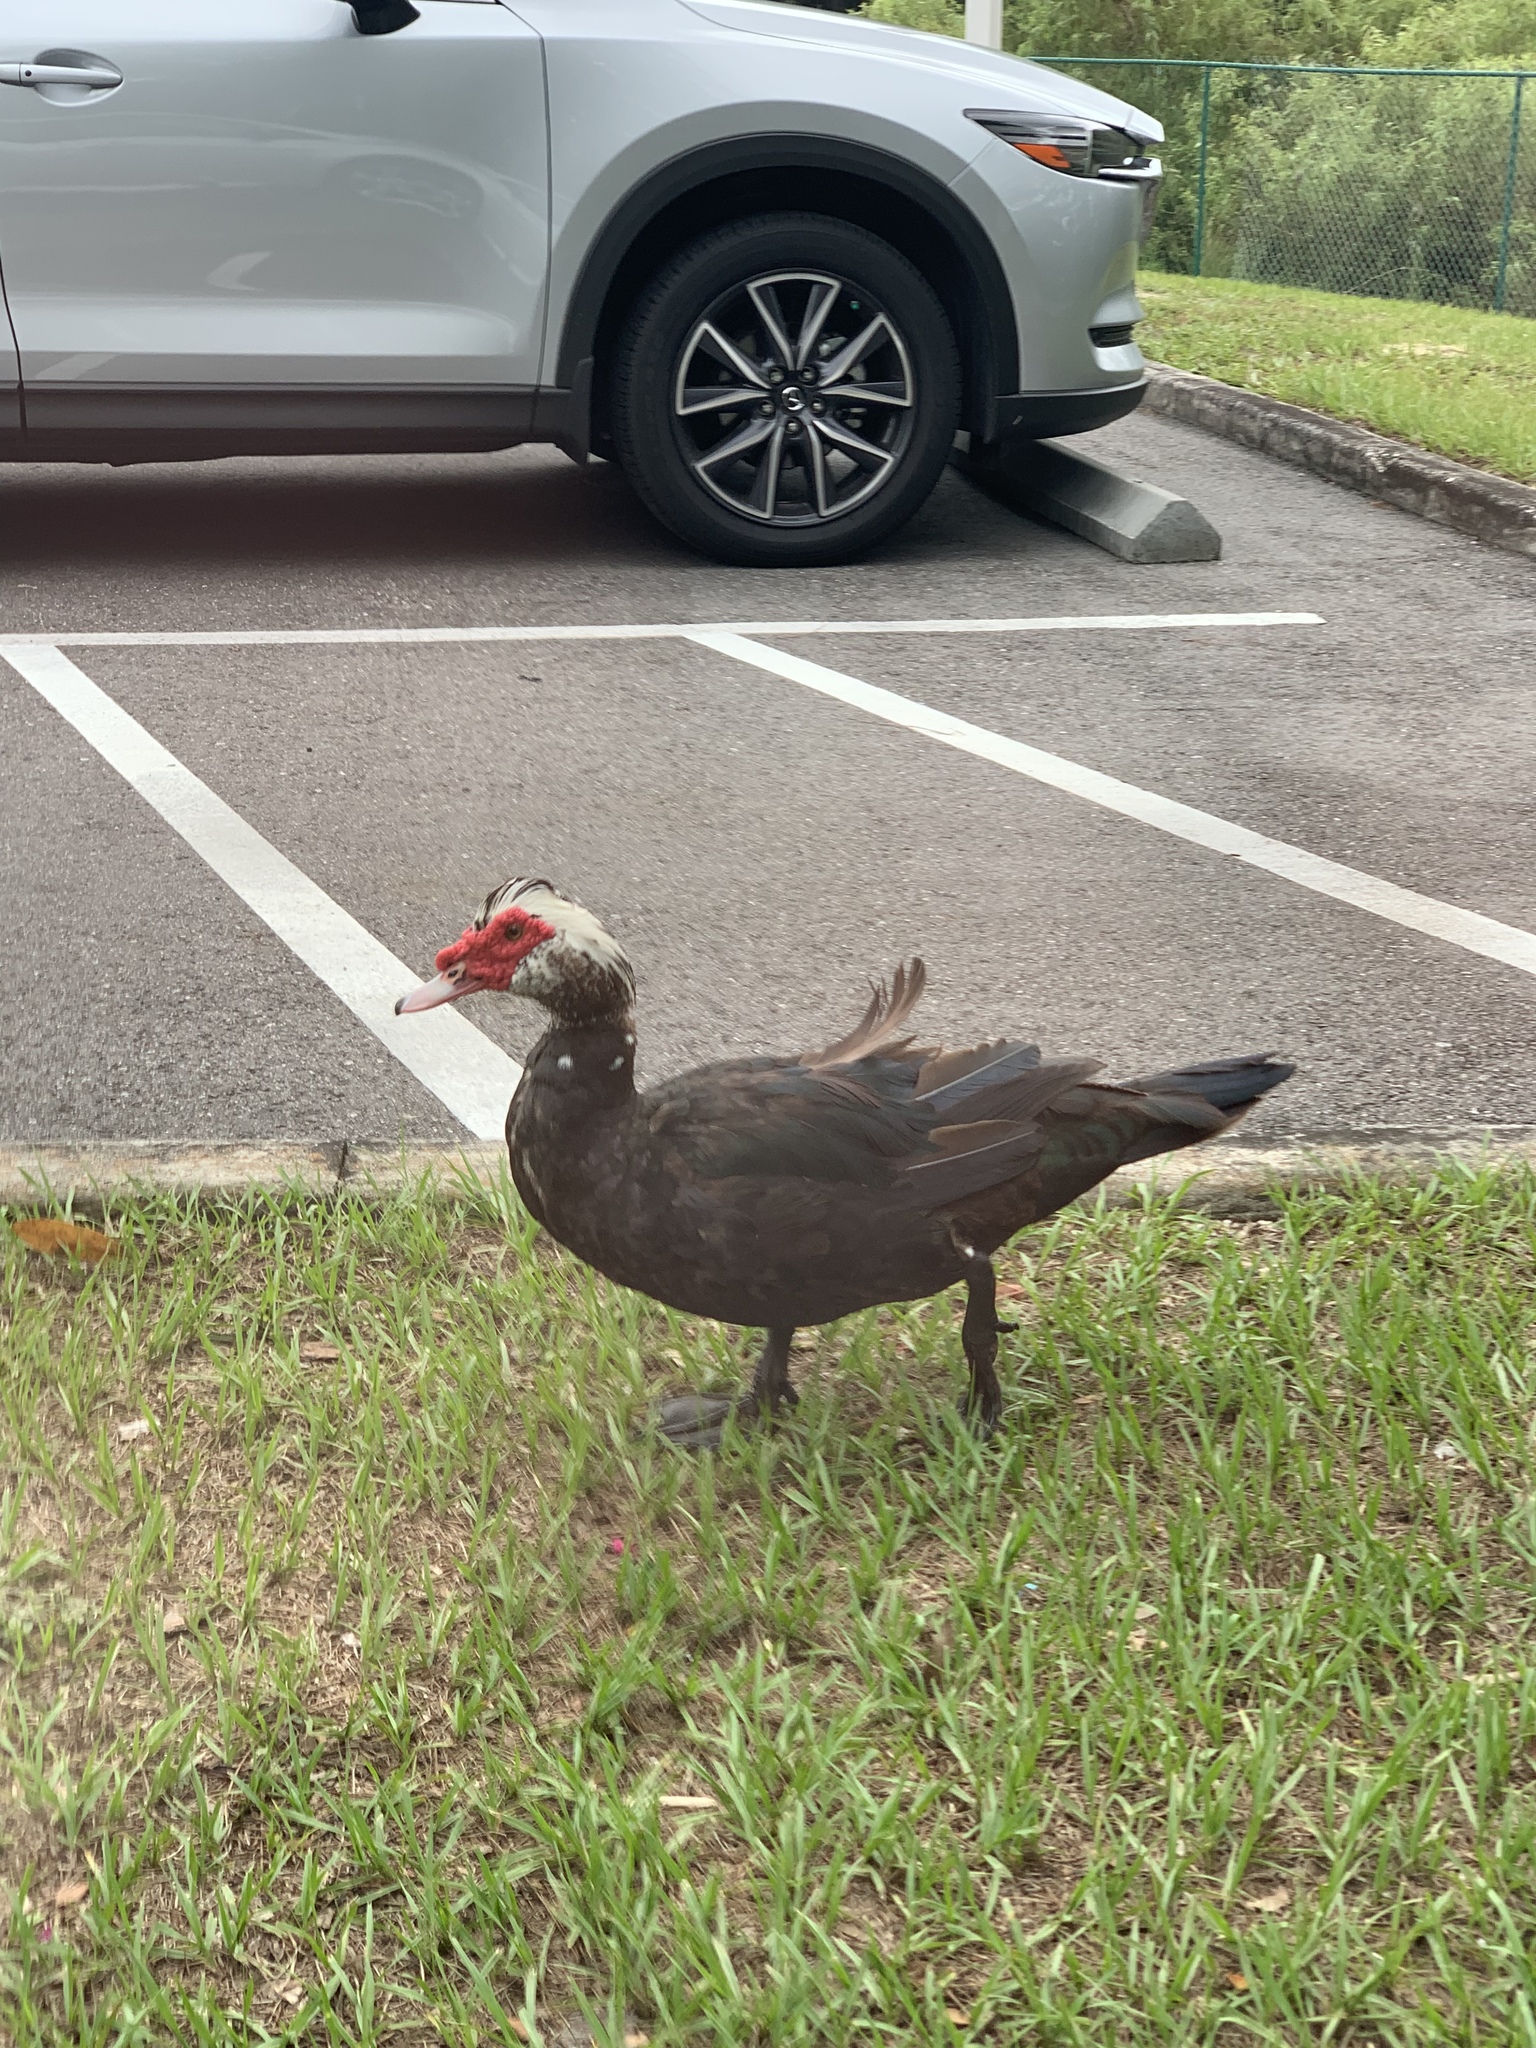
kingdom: Animalia
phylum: Chordata
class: Aves
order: Anseriformes
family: Anatidae
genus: Cairina
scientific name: Cairina moschata
